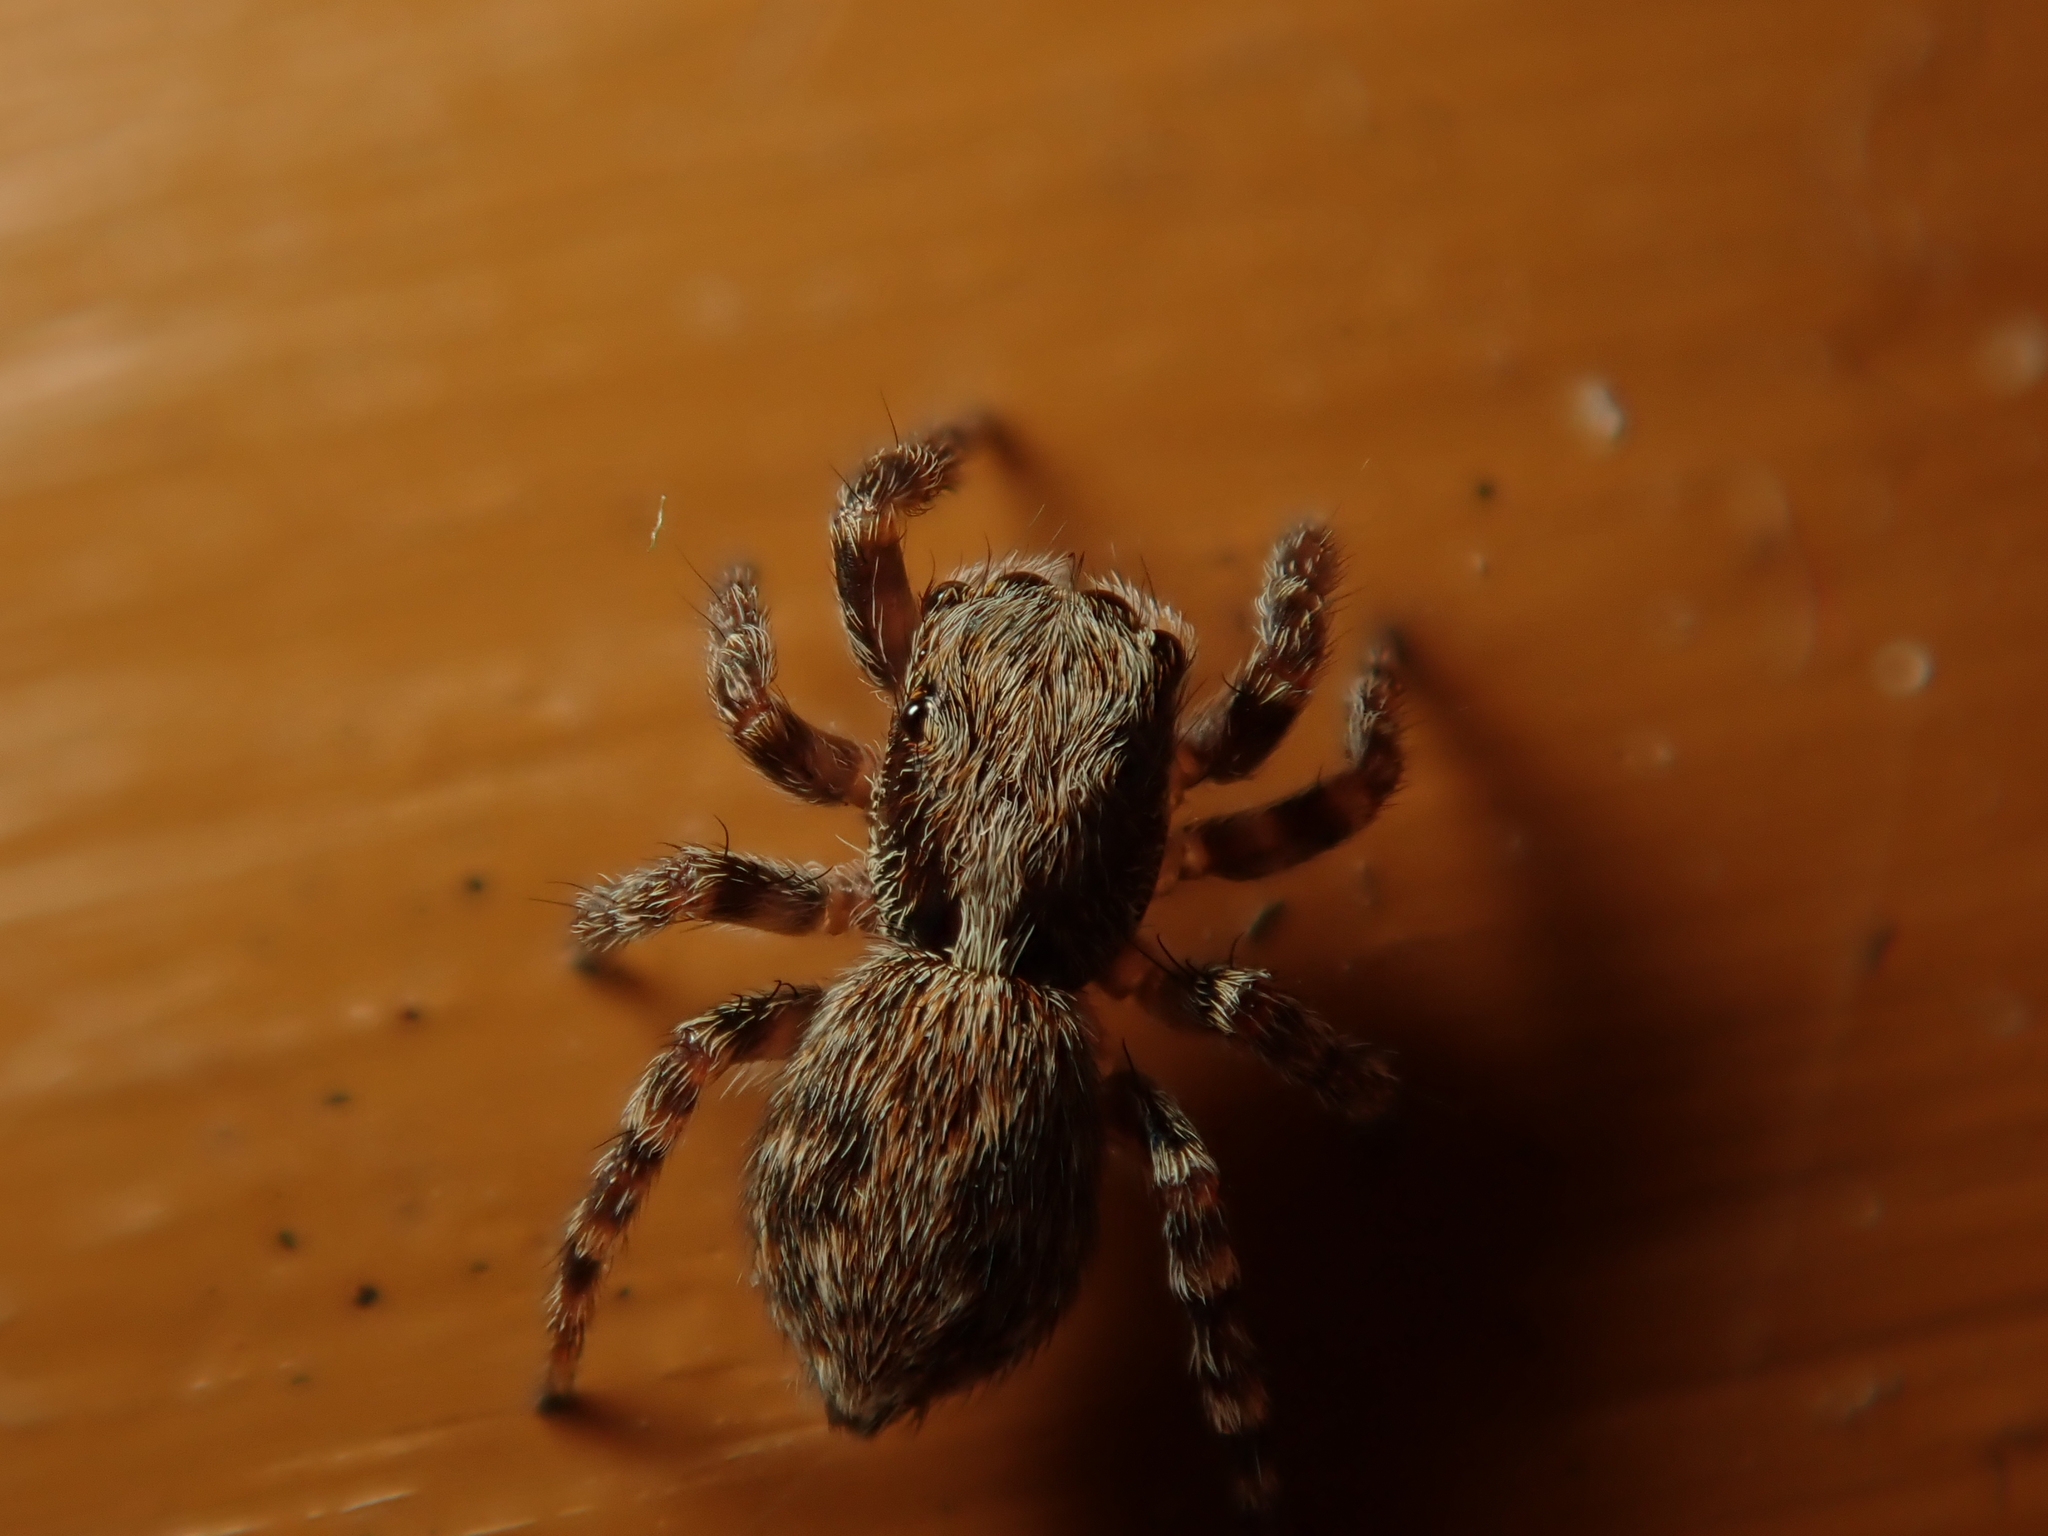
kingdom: Animalia
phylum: Arthropoda
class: Arachnida
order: Araneae
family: Salticidae
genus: Pseudeuophrys
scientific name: Pseudeuophrys lanigera
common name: Jumping spider
